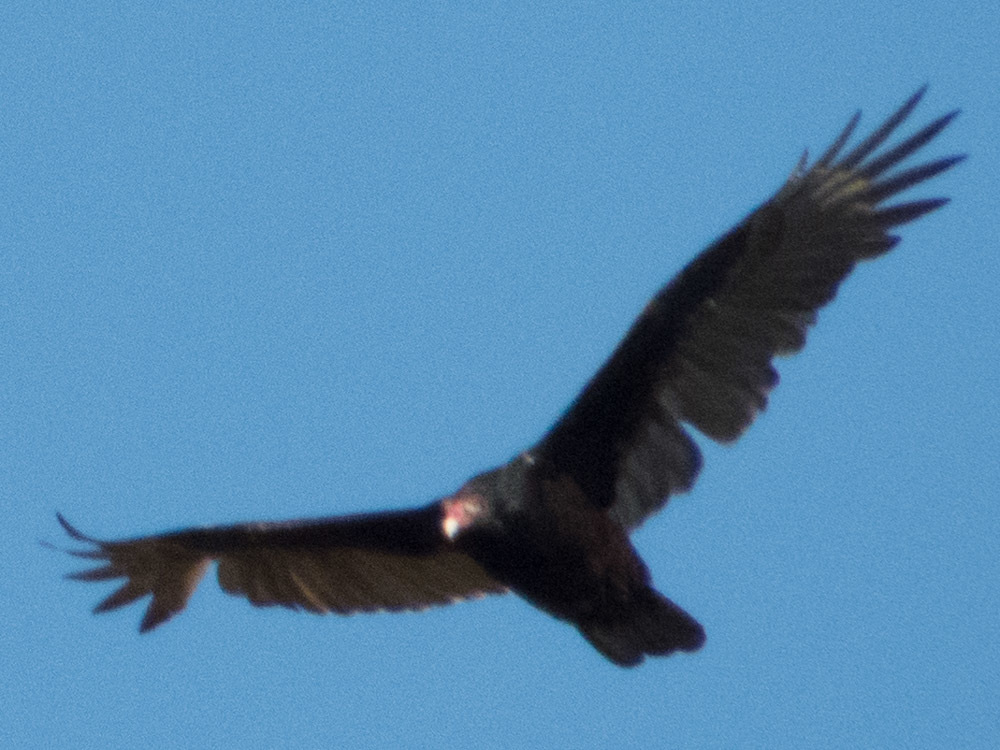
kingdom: Animalia
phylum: Chordata
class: Aves
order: Accipitriformes
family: Cathartidae
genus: Cathartes
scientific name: Cathartes aura
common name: Turkey vulture
